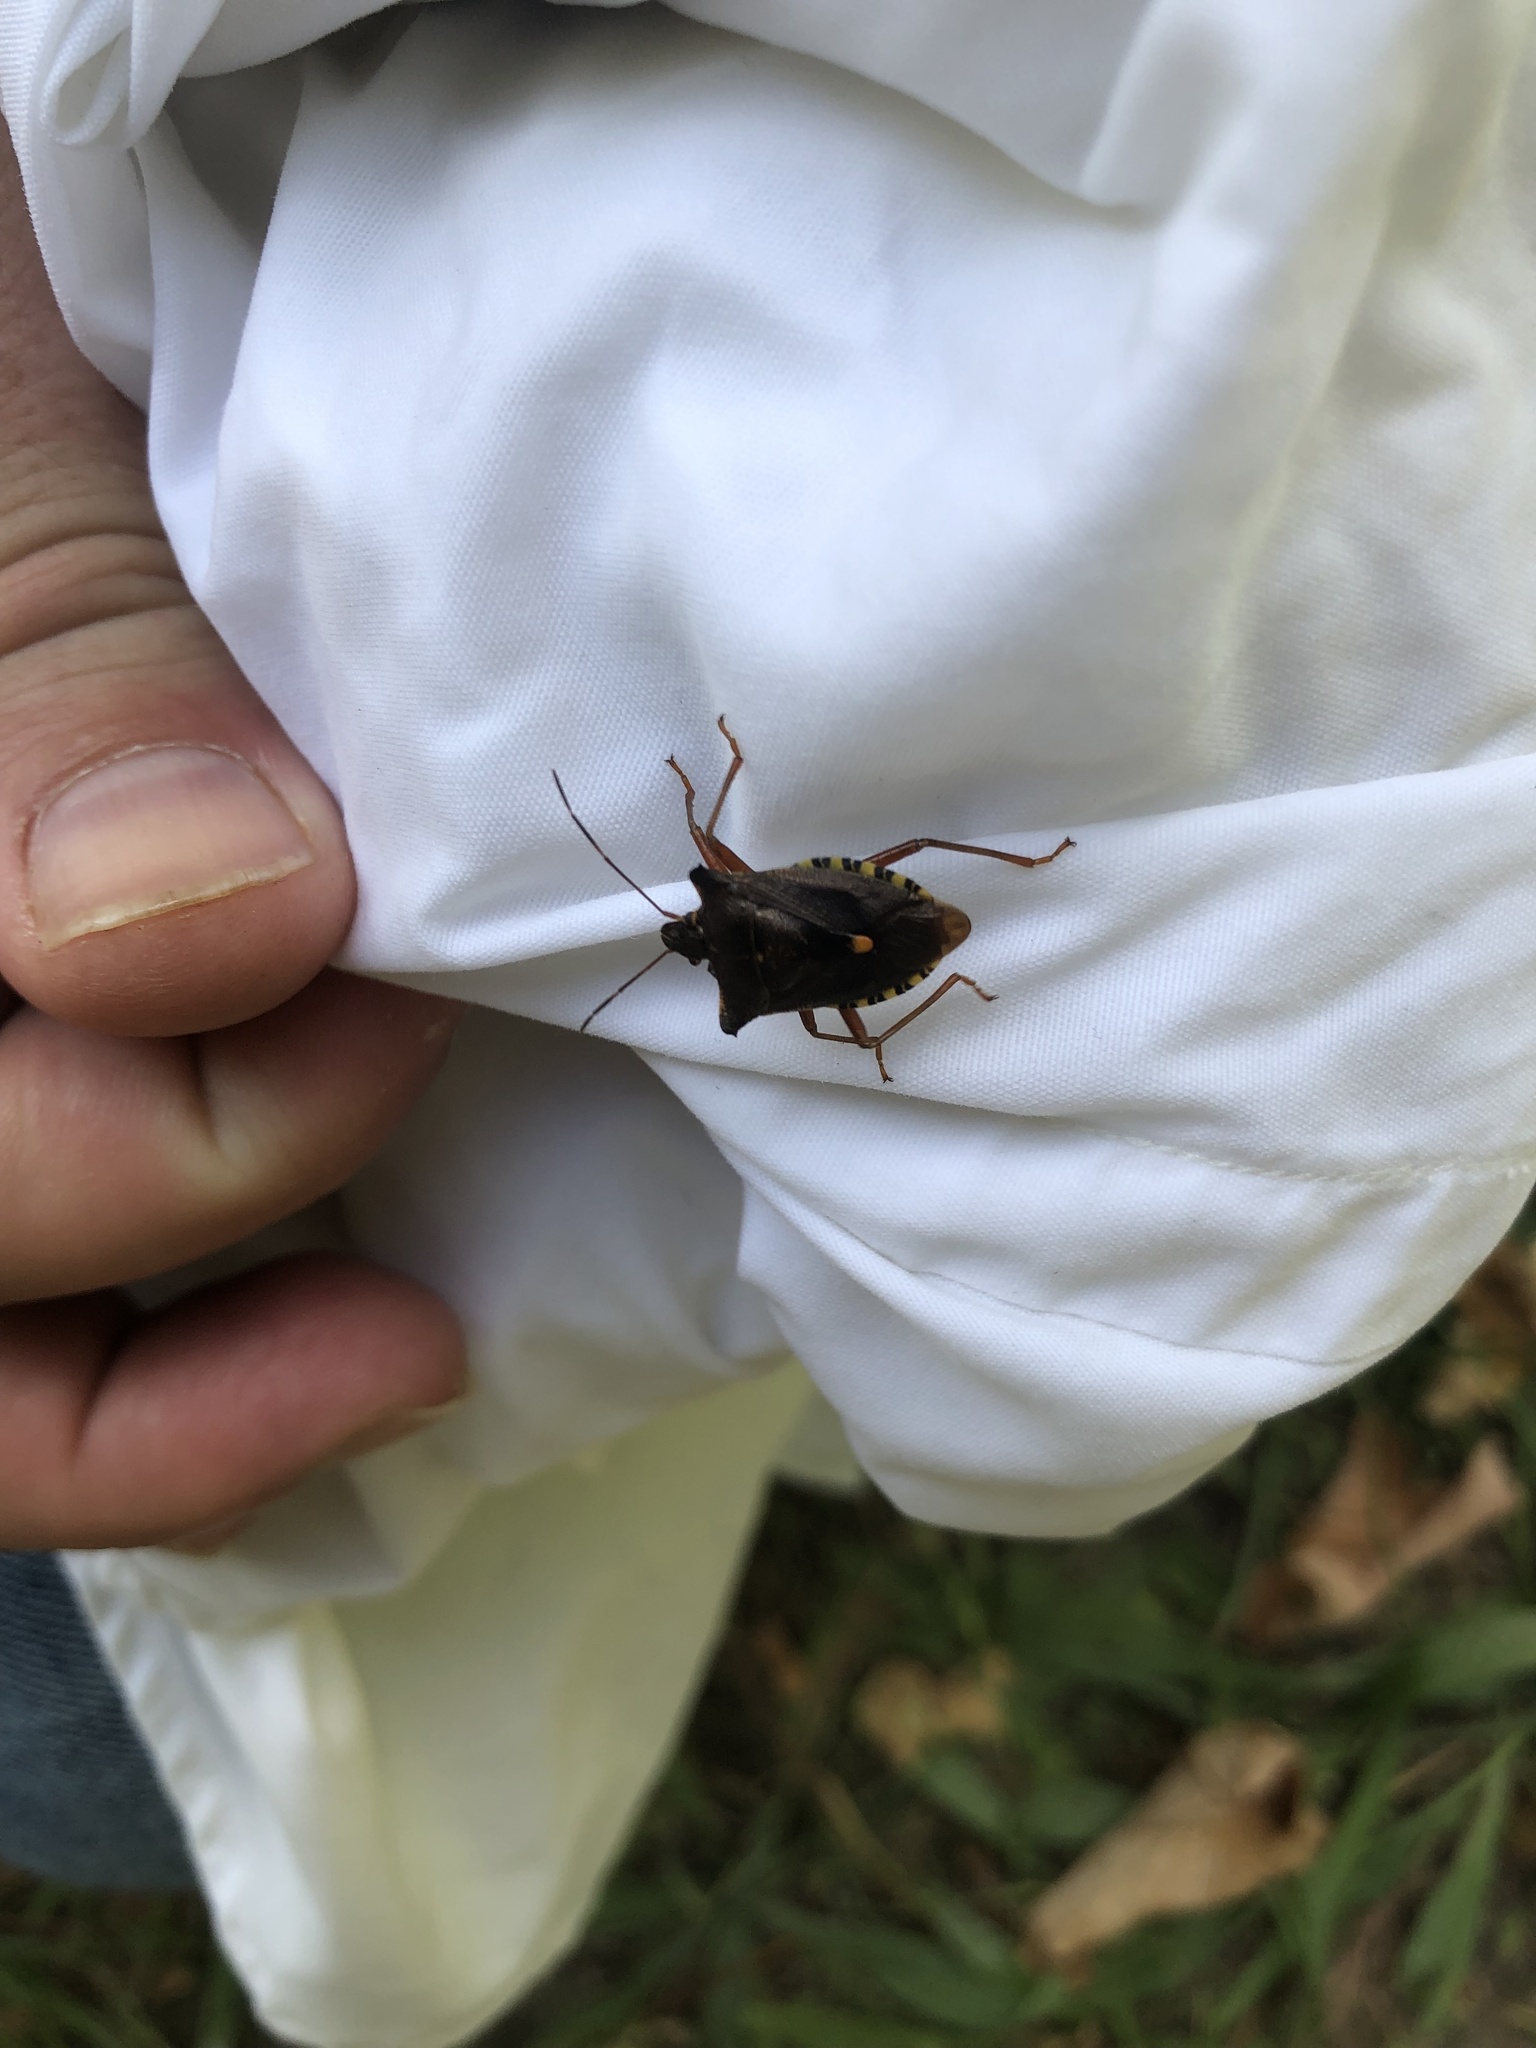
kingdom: Animalia
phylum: Arthropoda
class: Insecta
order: Hemiptera
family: Pentatomidae
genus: Pentatoma
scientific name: Pentatoma rufipes
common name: Forest bug
